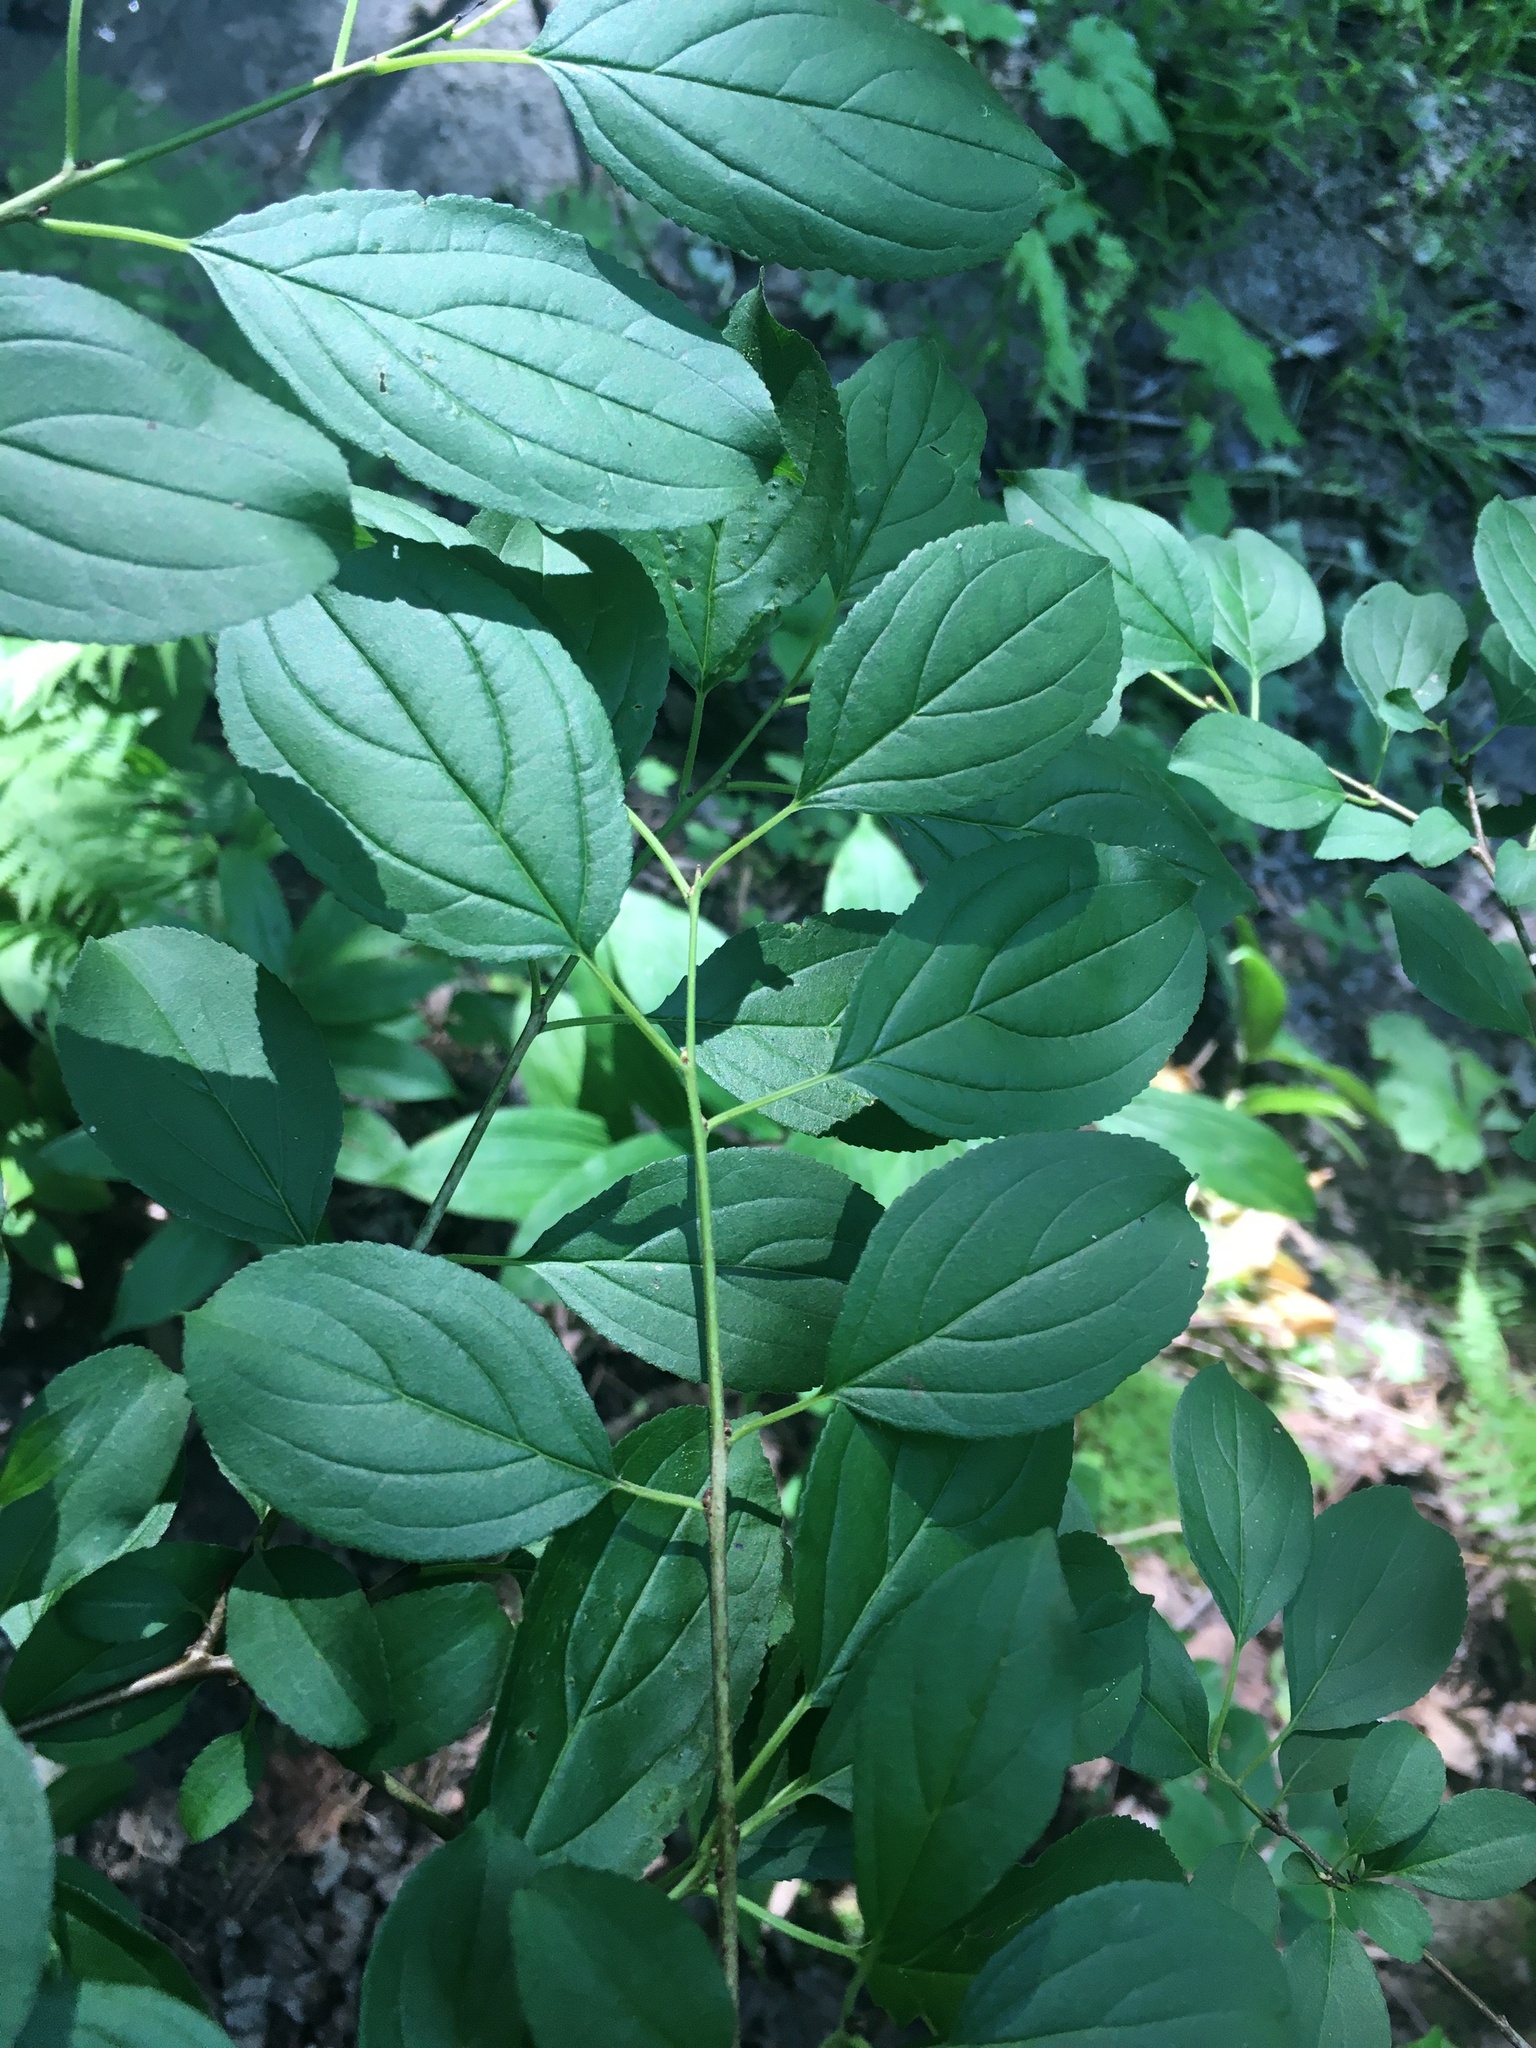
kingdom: Plantae
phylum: Tracheophyta
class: Magnoliopsida
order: Rosales
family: Rhamnaceae
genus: Rhamnus
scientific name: Rhamnus cathartica
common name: Common buckthorn
